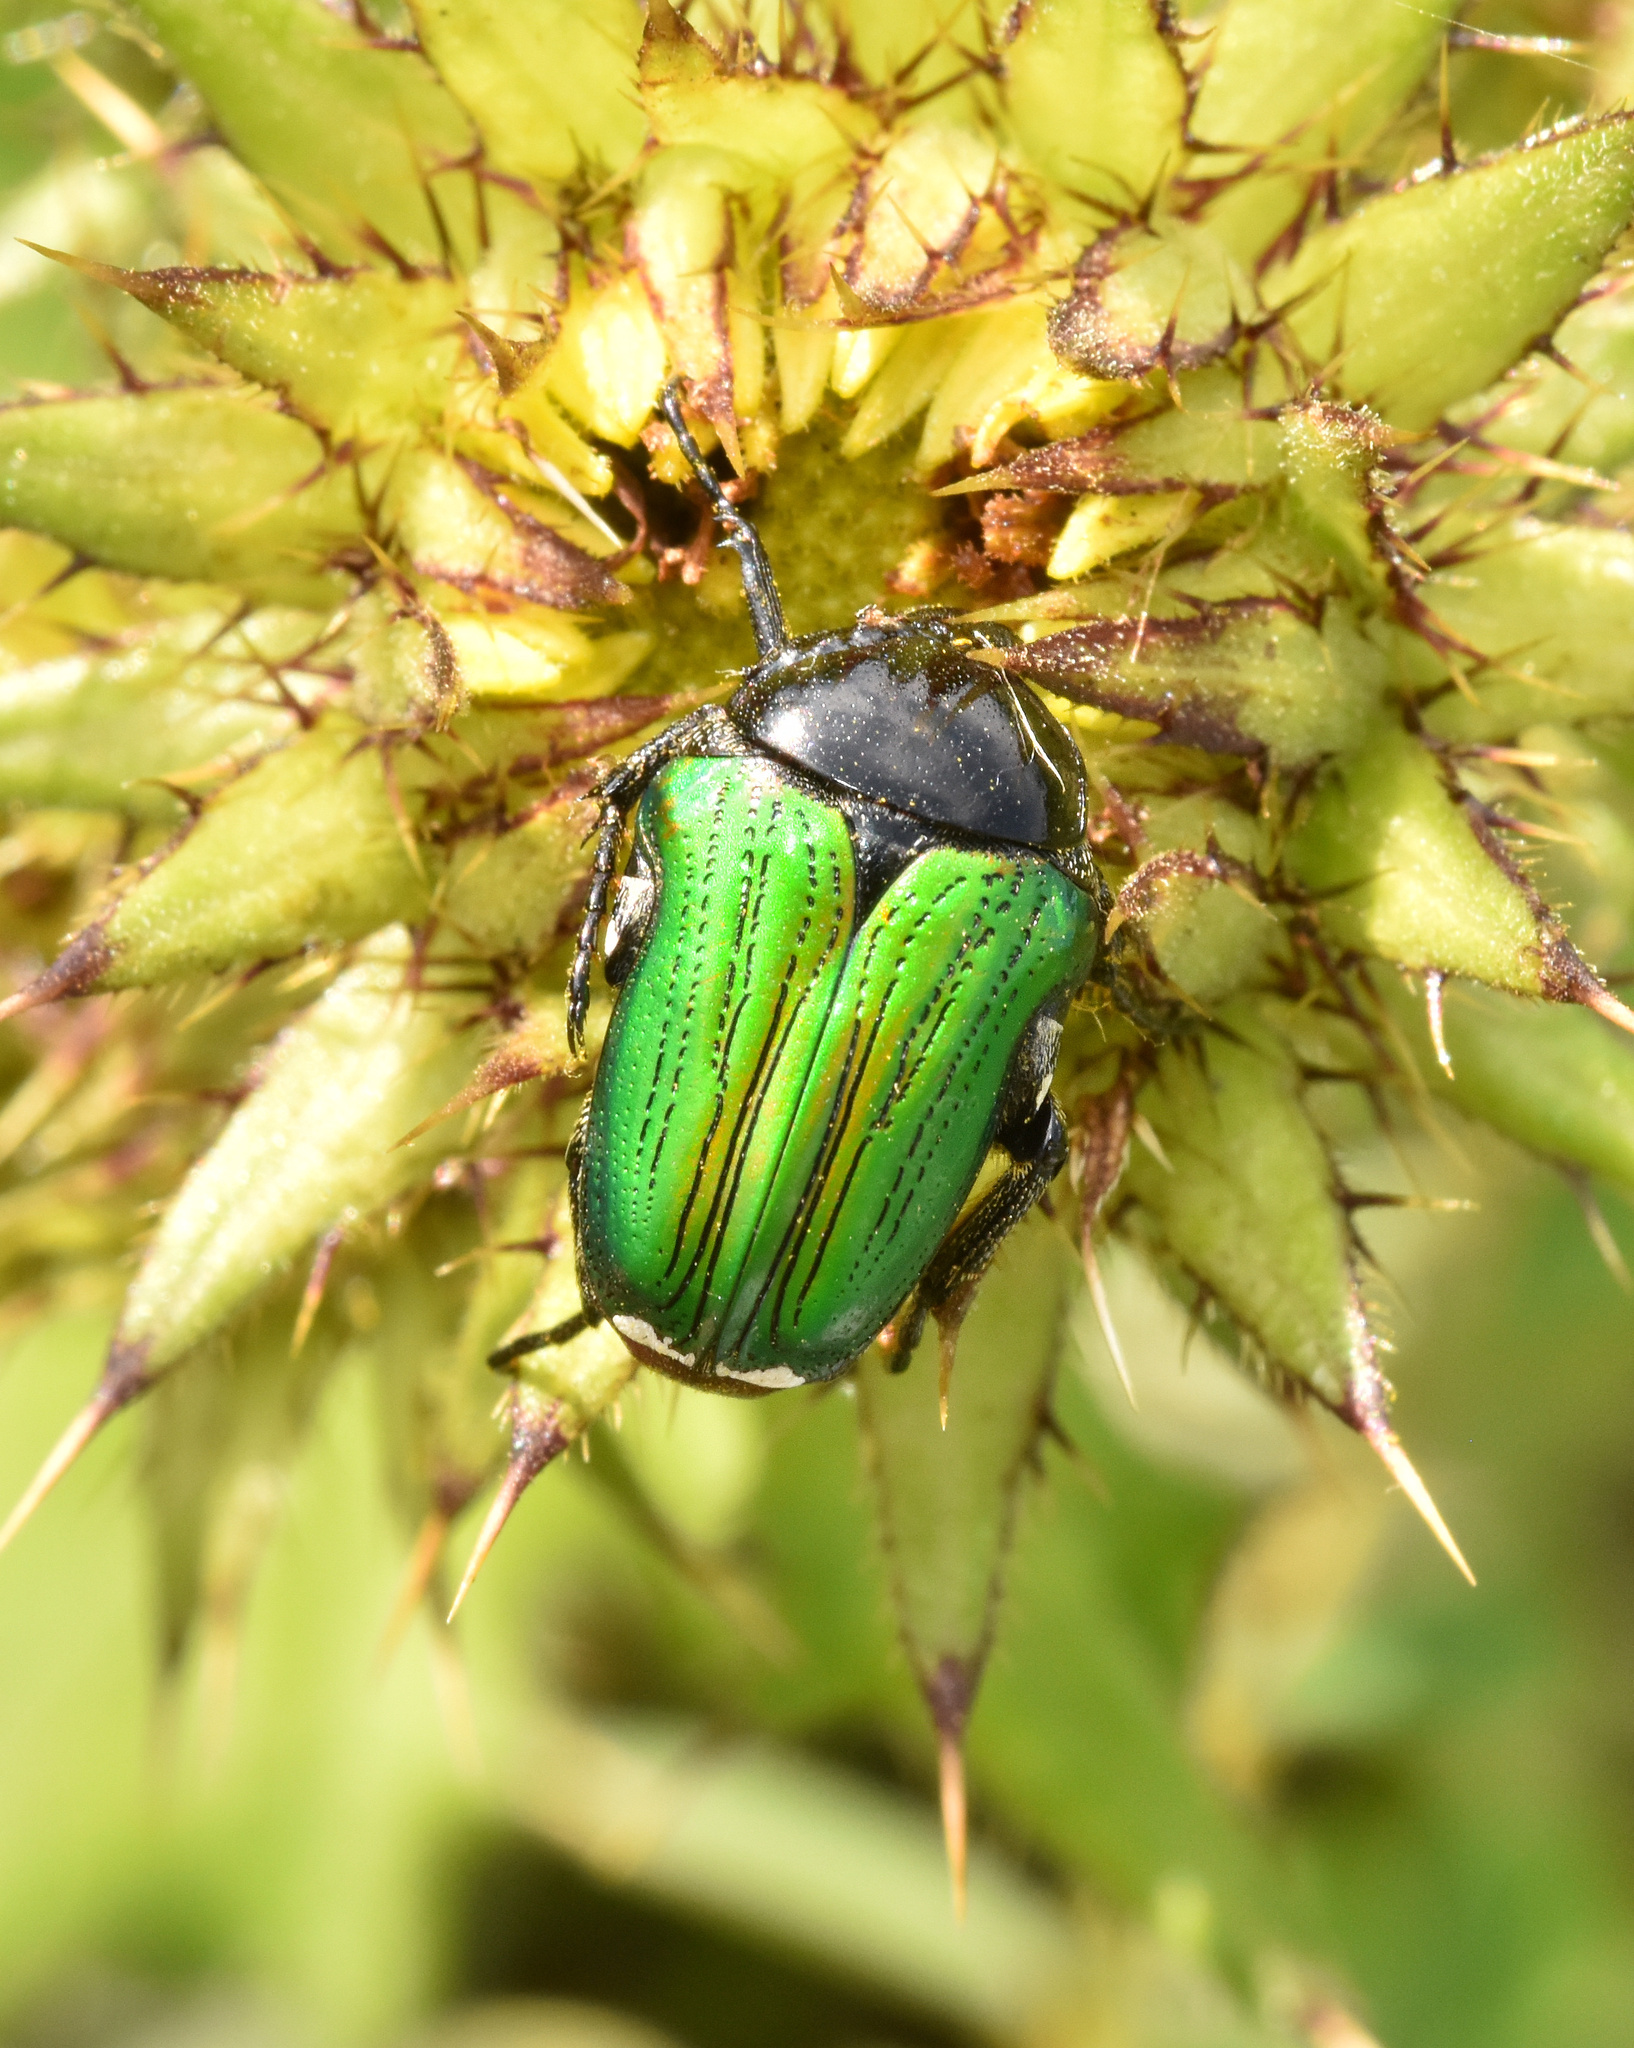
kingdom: Animalia
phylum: Arthropoda
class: Insecta
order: Coleoptera
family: Scarabaeidae
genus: Leucocelis
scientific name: Leucocelis haemorrhoidalis
